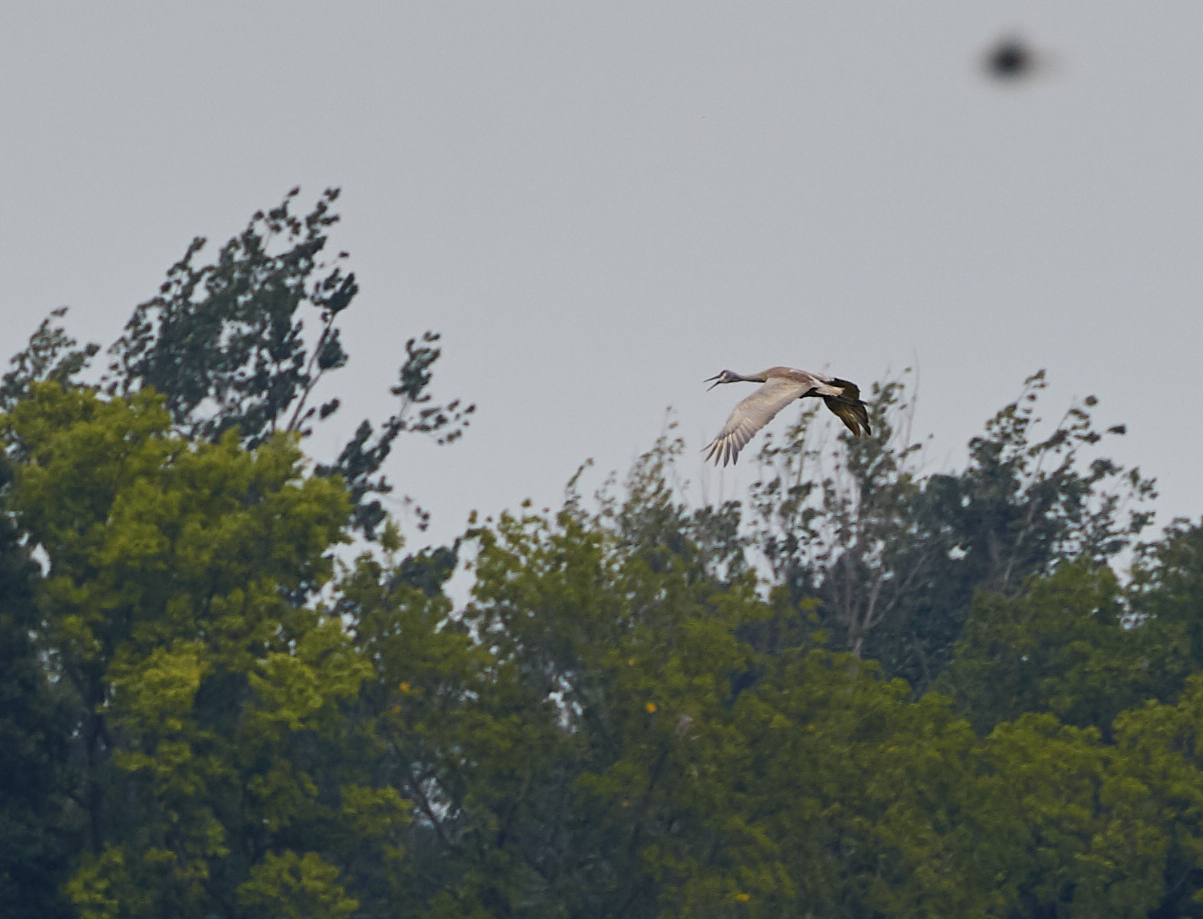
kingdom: Animalia
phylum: Chordata
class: Aves
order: Gruiformes
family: Gruidae
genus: Grus
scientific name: Grus canadensis
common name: Sandhill crane
